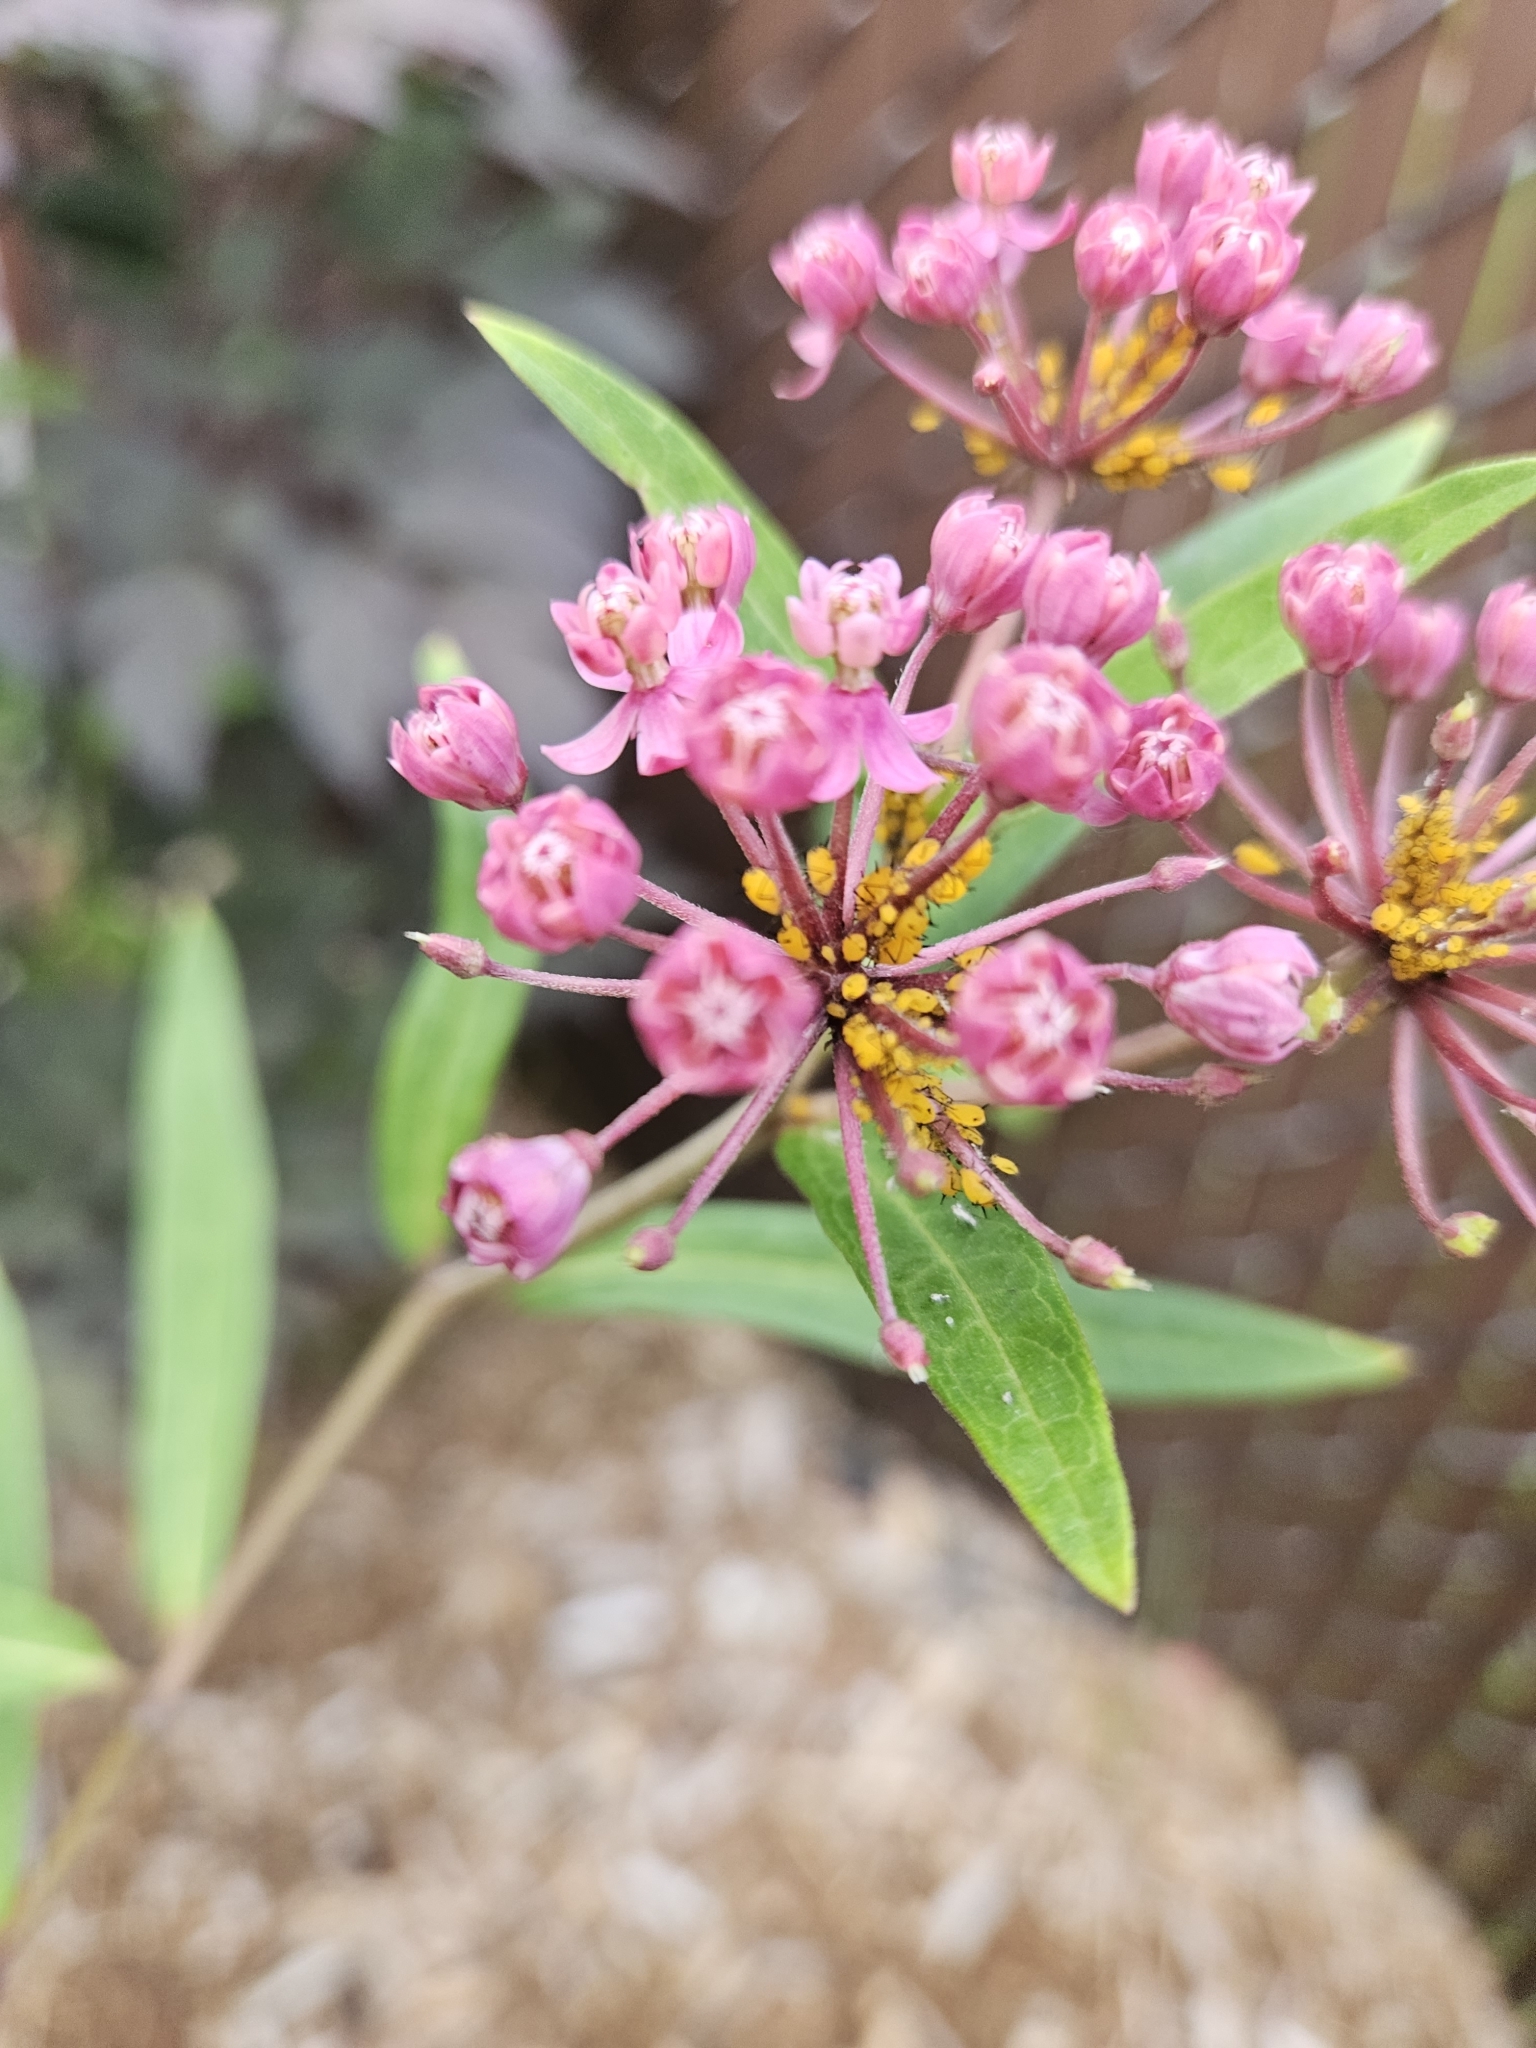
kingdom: Animalia
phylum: Arthropoda
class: Insecta
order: Hemiptera
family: Aphididae
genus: Aphis
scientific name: Aphis nerii
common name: Oleander aphid
